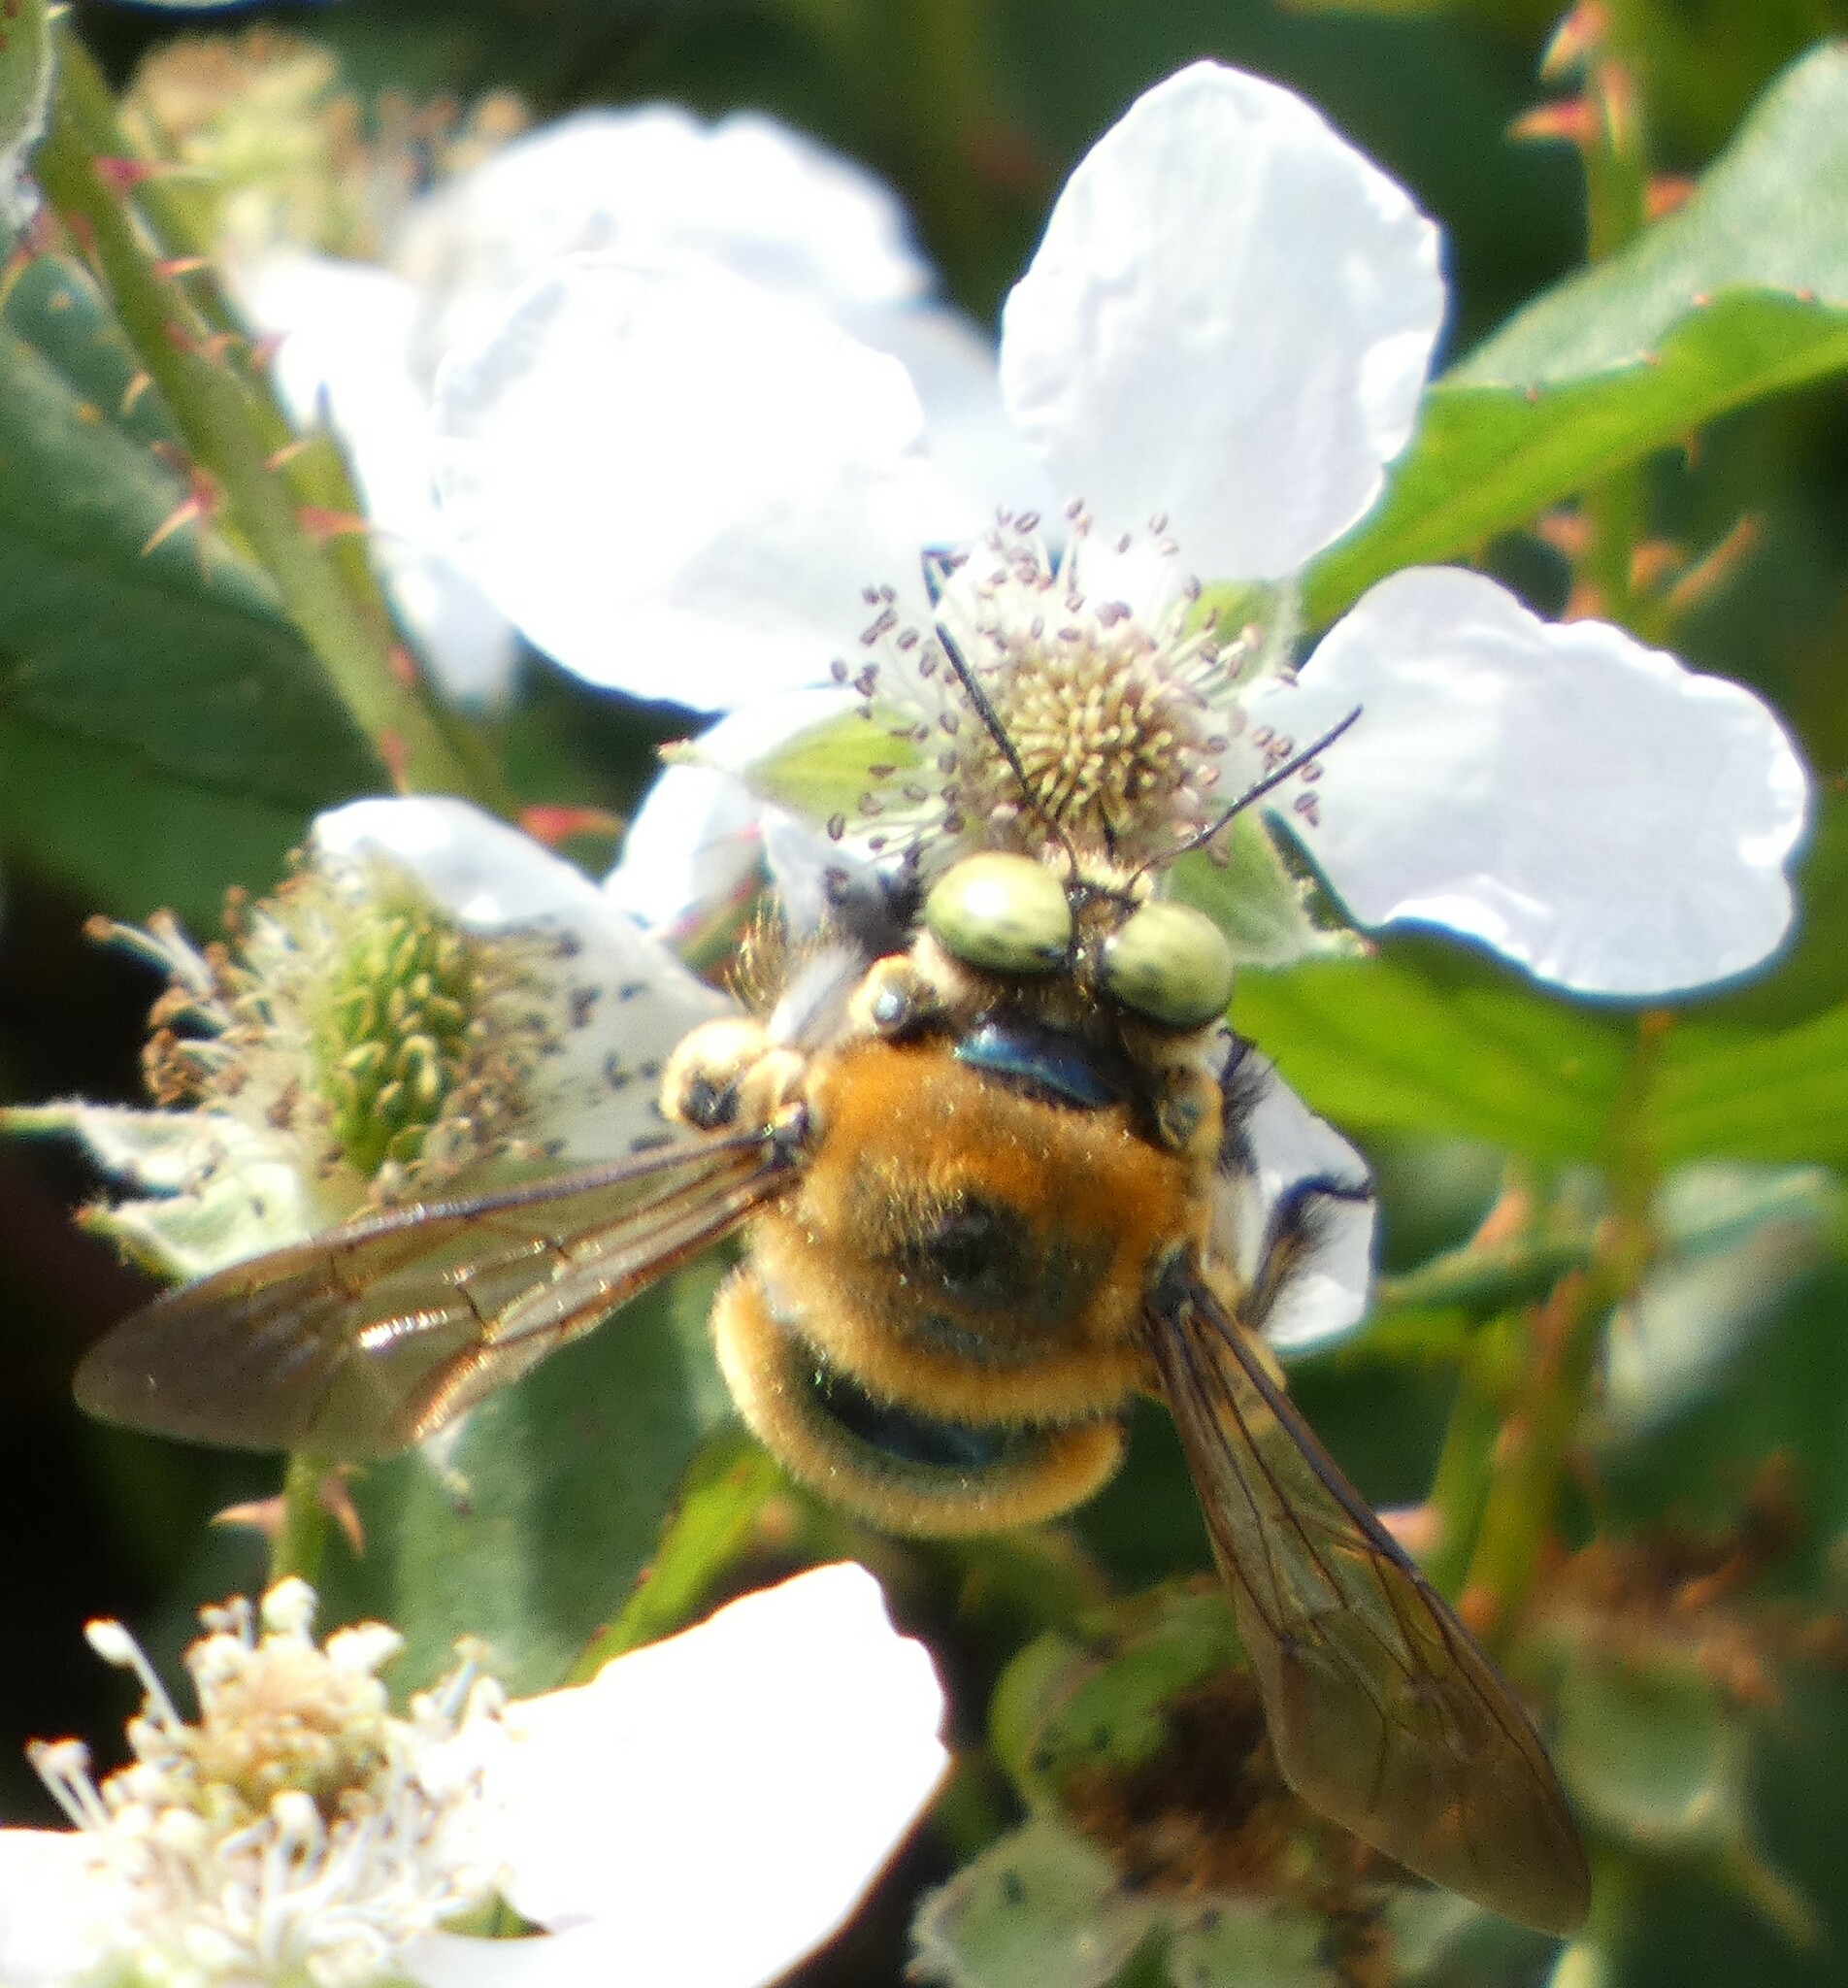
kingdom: Animalia
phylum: Arthropoda
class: Insecta
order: Hymenoptera
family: Apidae
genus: Xylocopa
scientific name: Xylocopa micans
